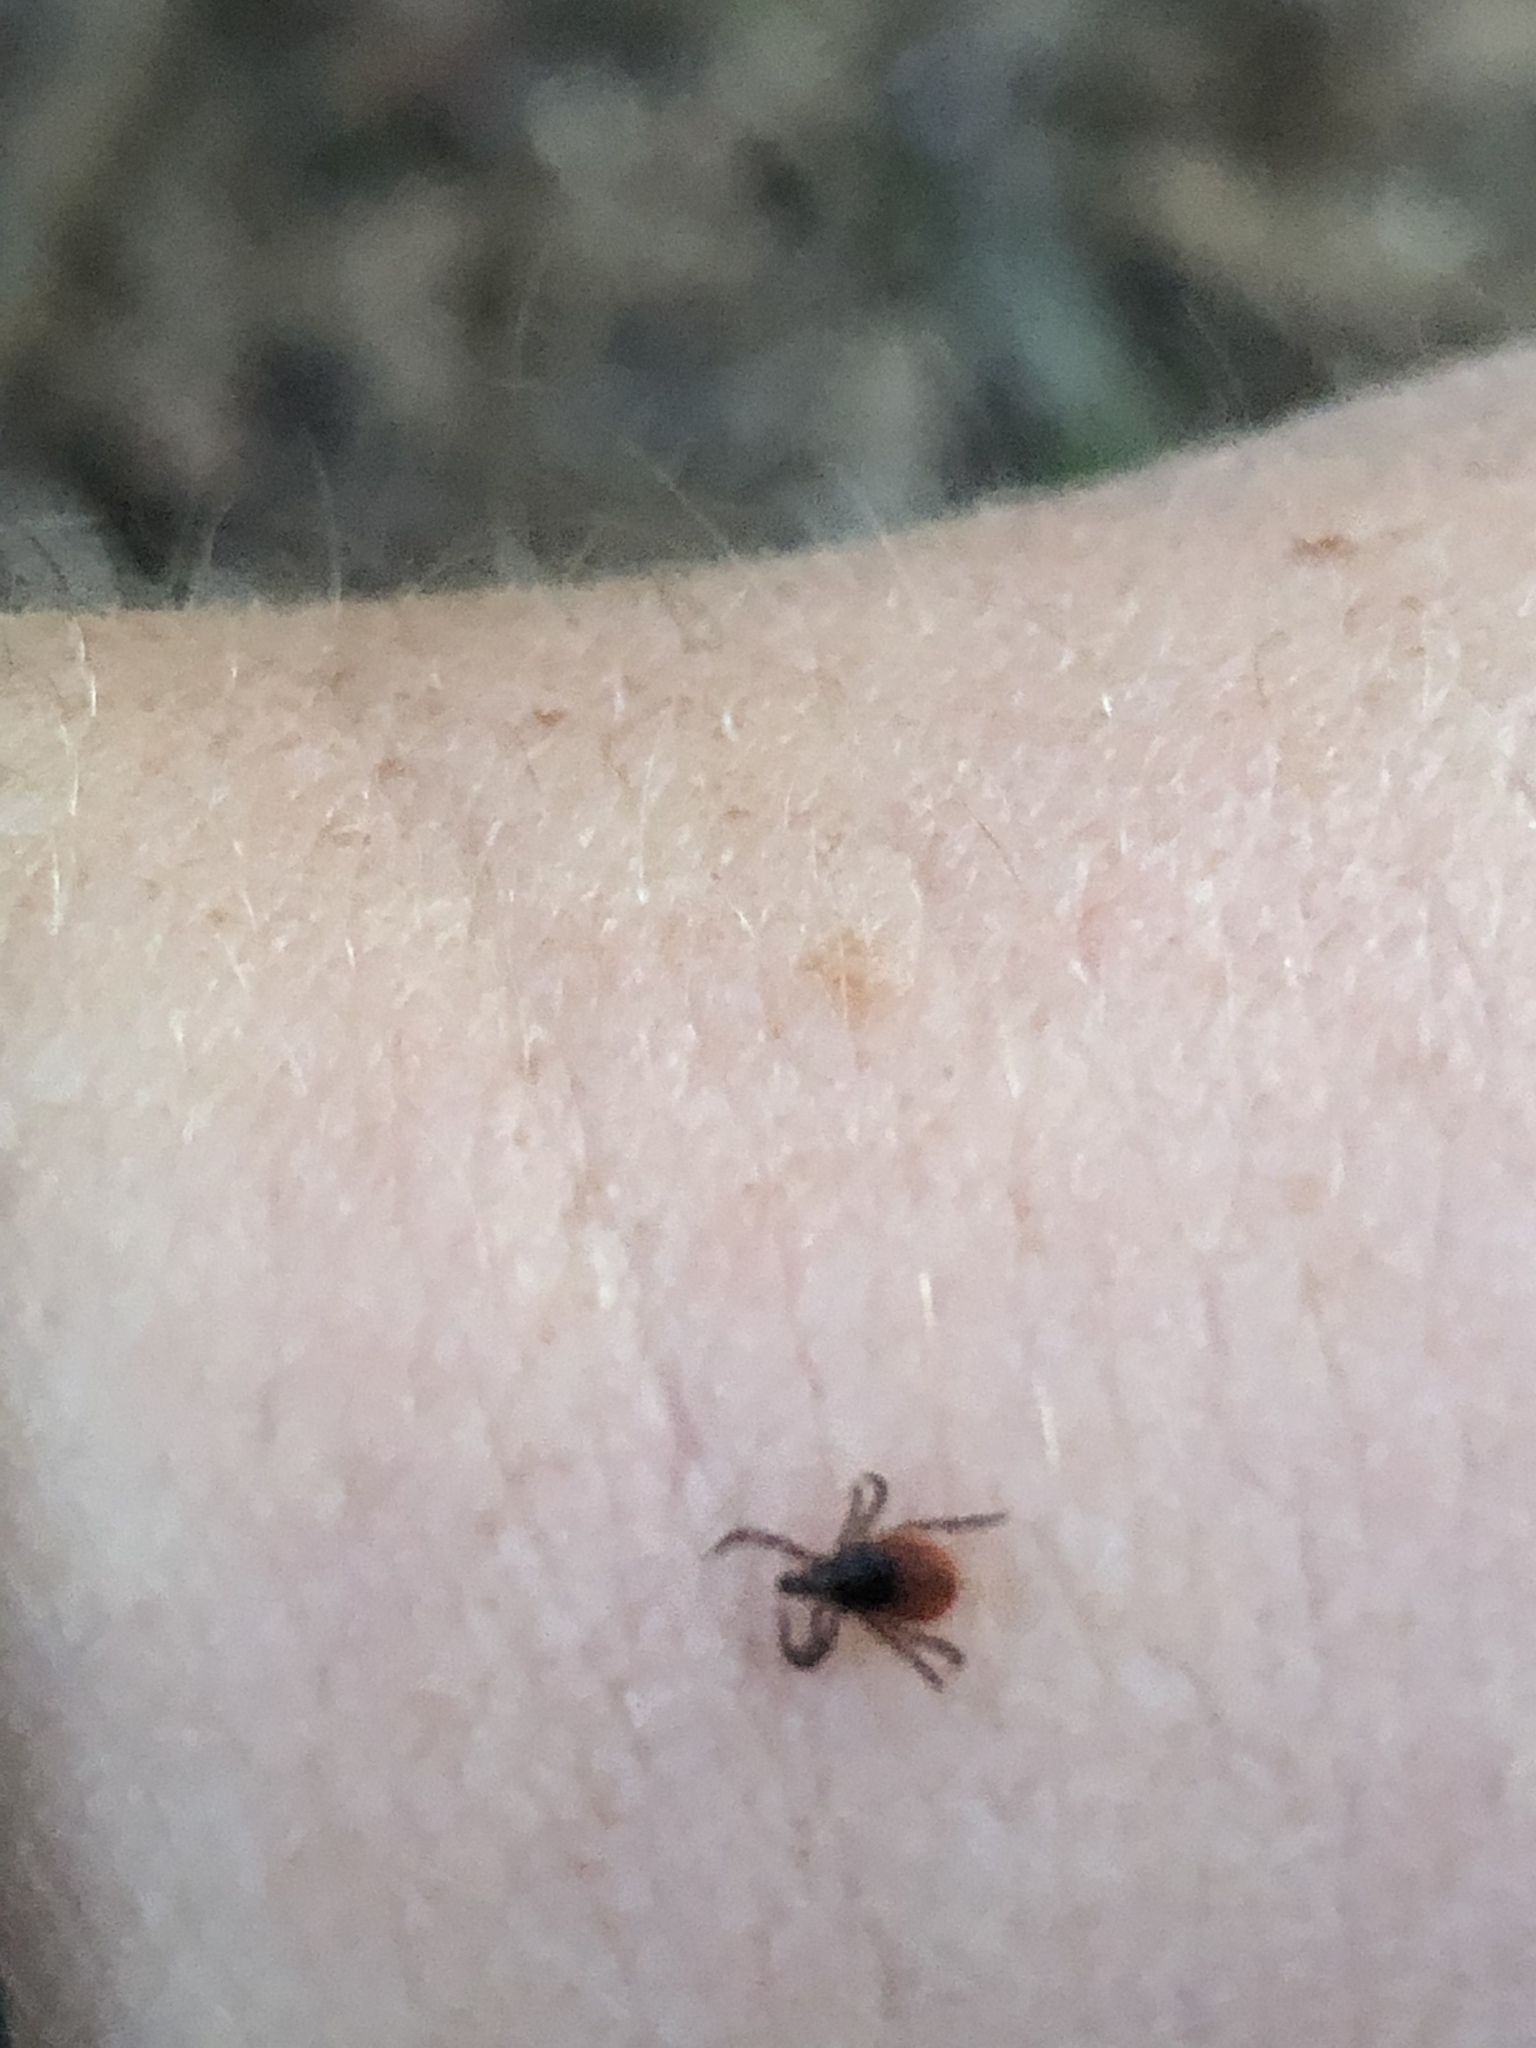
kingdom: Animalia
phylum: Arthropoda
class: Arachnida
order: Ixodida
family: Ixodidae
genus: Ixodes
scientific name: Ixodes scapularis
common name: Black legged tick
